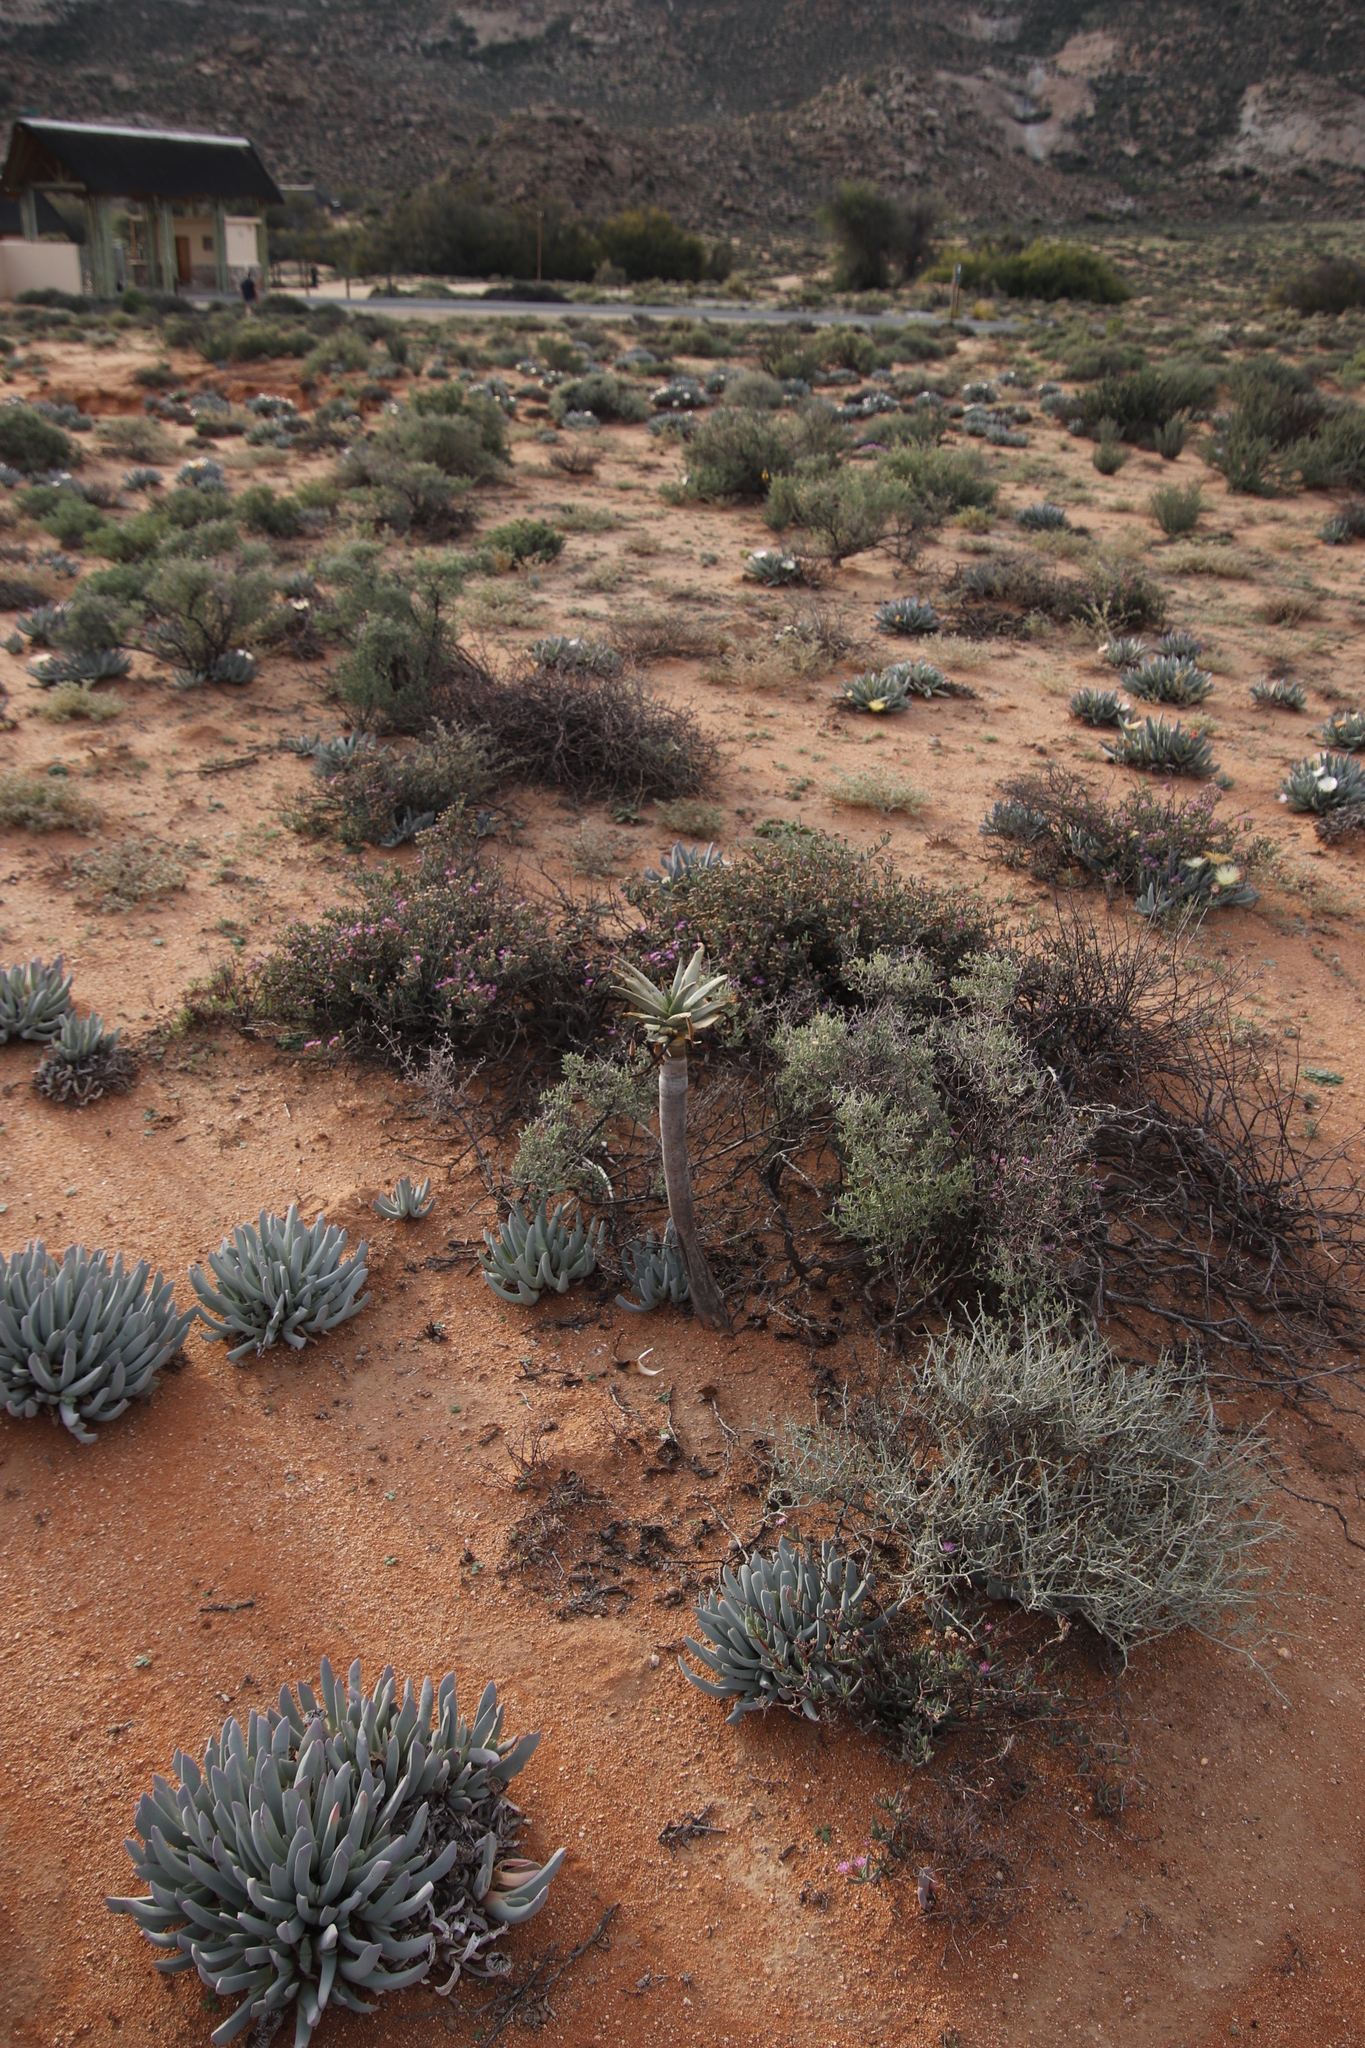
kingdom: Plantae
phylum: Tracheophyta
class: Liliopsida
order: Asparagales
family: Asphodelaceae
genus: Aloidendron
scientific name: Aloidendron dichotomum
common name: Quiver tree
